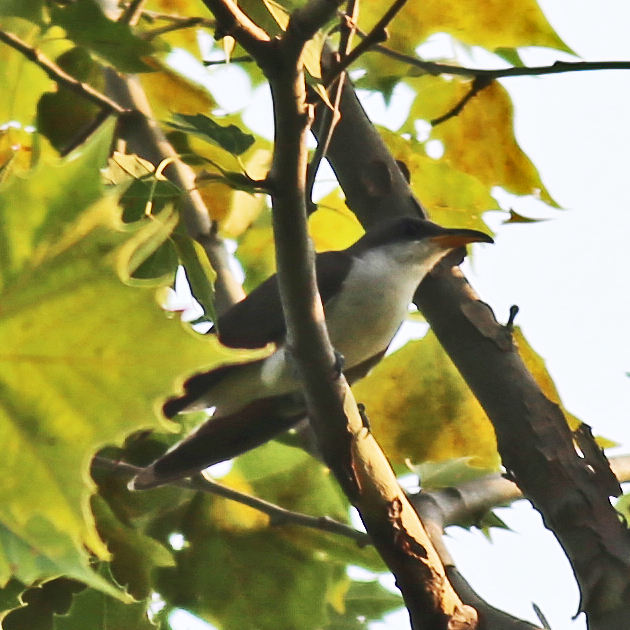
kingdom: Animalia
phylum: Chordata
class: Aves
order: Cuculiformes
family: Cuculidae
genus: Coccyzus
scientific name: Coccyzus americanus
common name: Yellow-billed cuckoo
